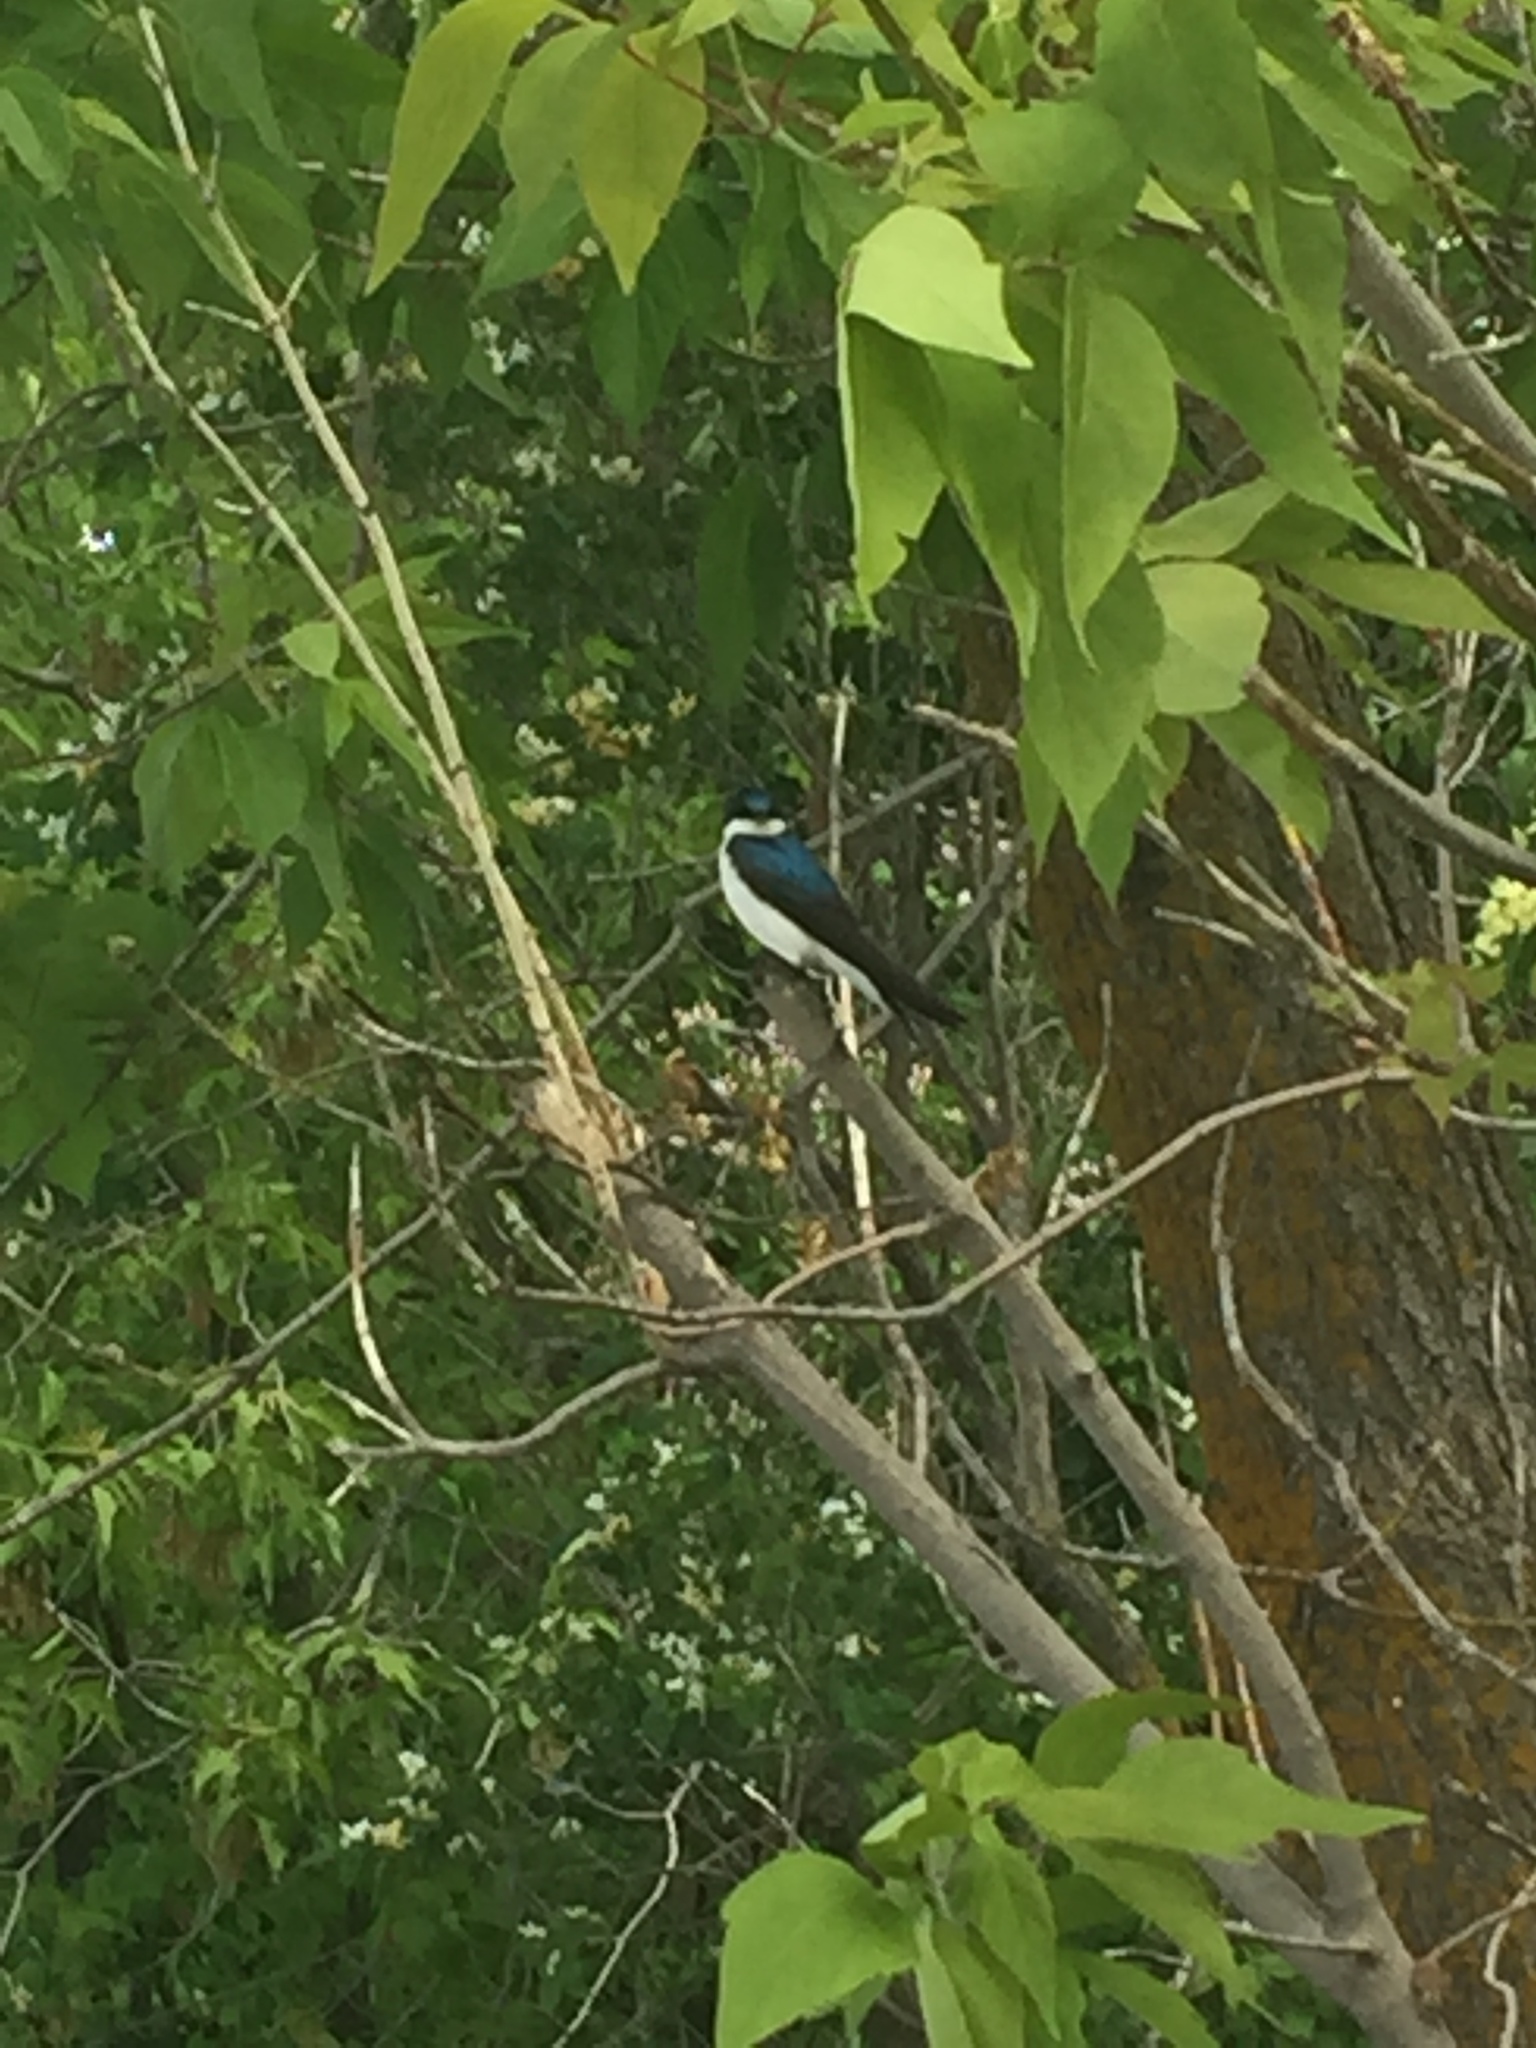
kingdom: Animalia
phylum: Chordata
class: Aves
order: Passeriformes
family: Hirundinidae
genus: Tachycineta
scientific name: Tachycineta bicolor
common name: Tree swallow
